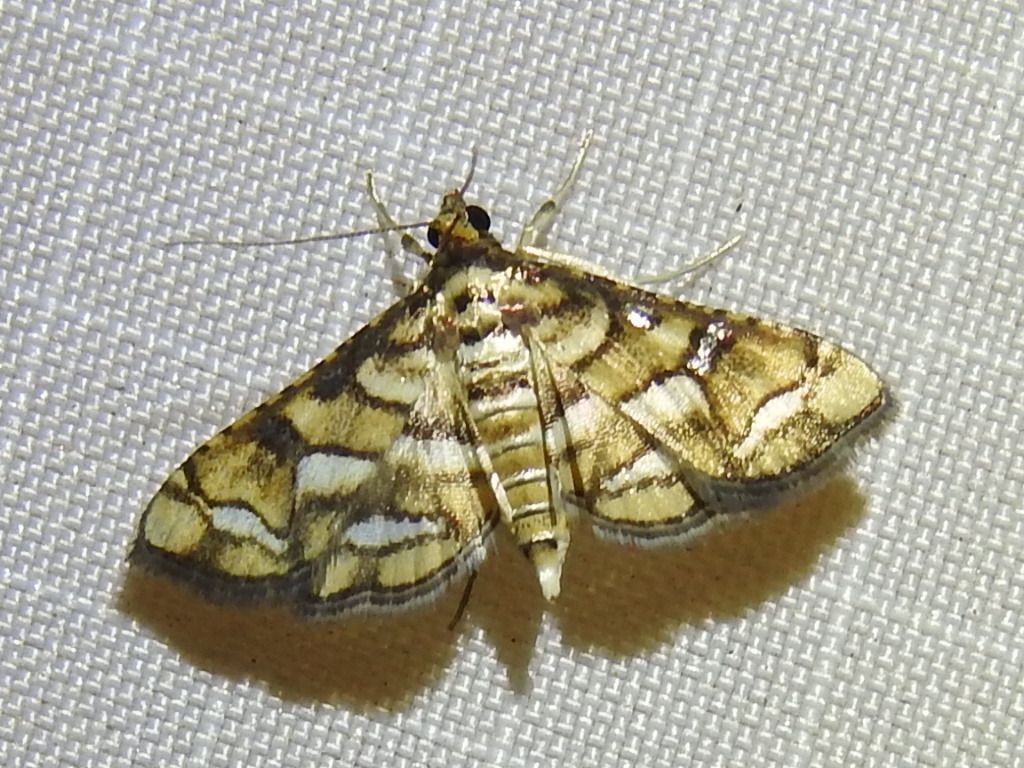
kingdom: Animalia
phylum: Arthropoda
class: Insecta
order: Lepidoptera
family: Crambidae
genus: Hileithia
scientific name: Hileithia magualis
